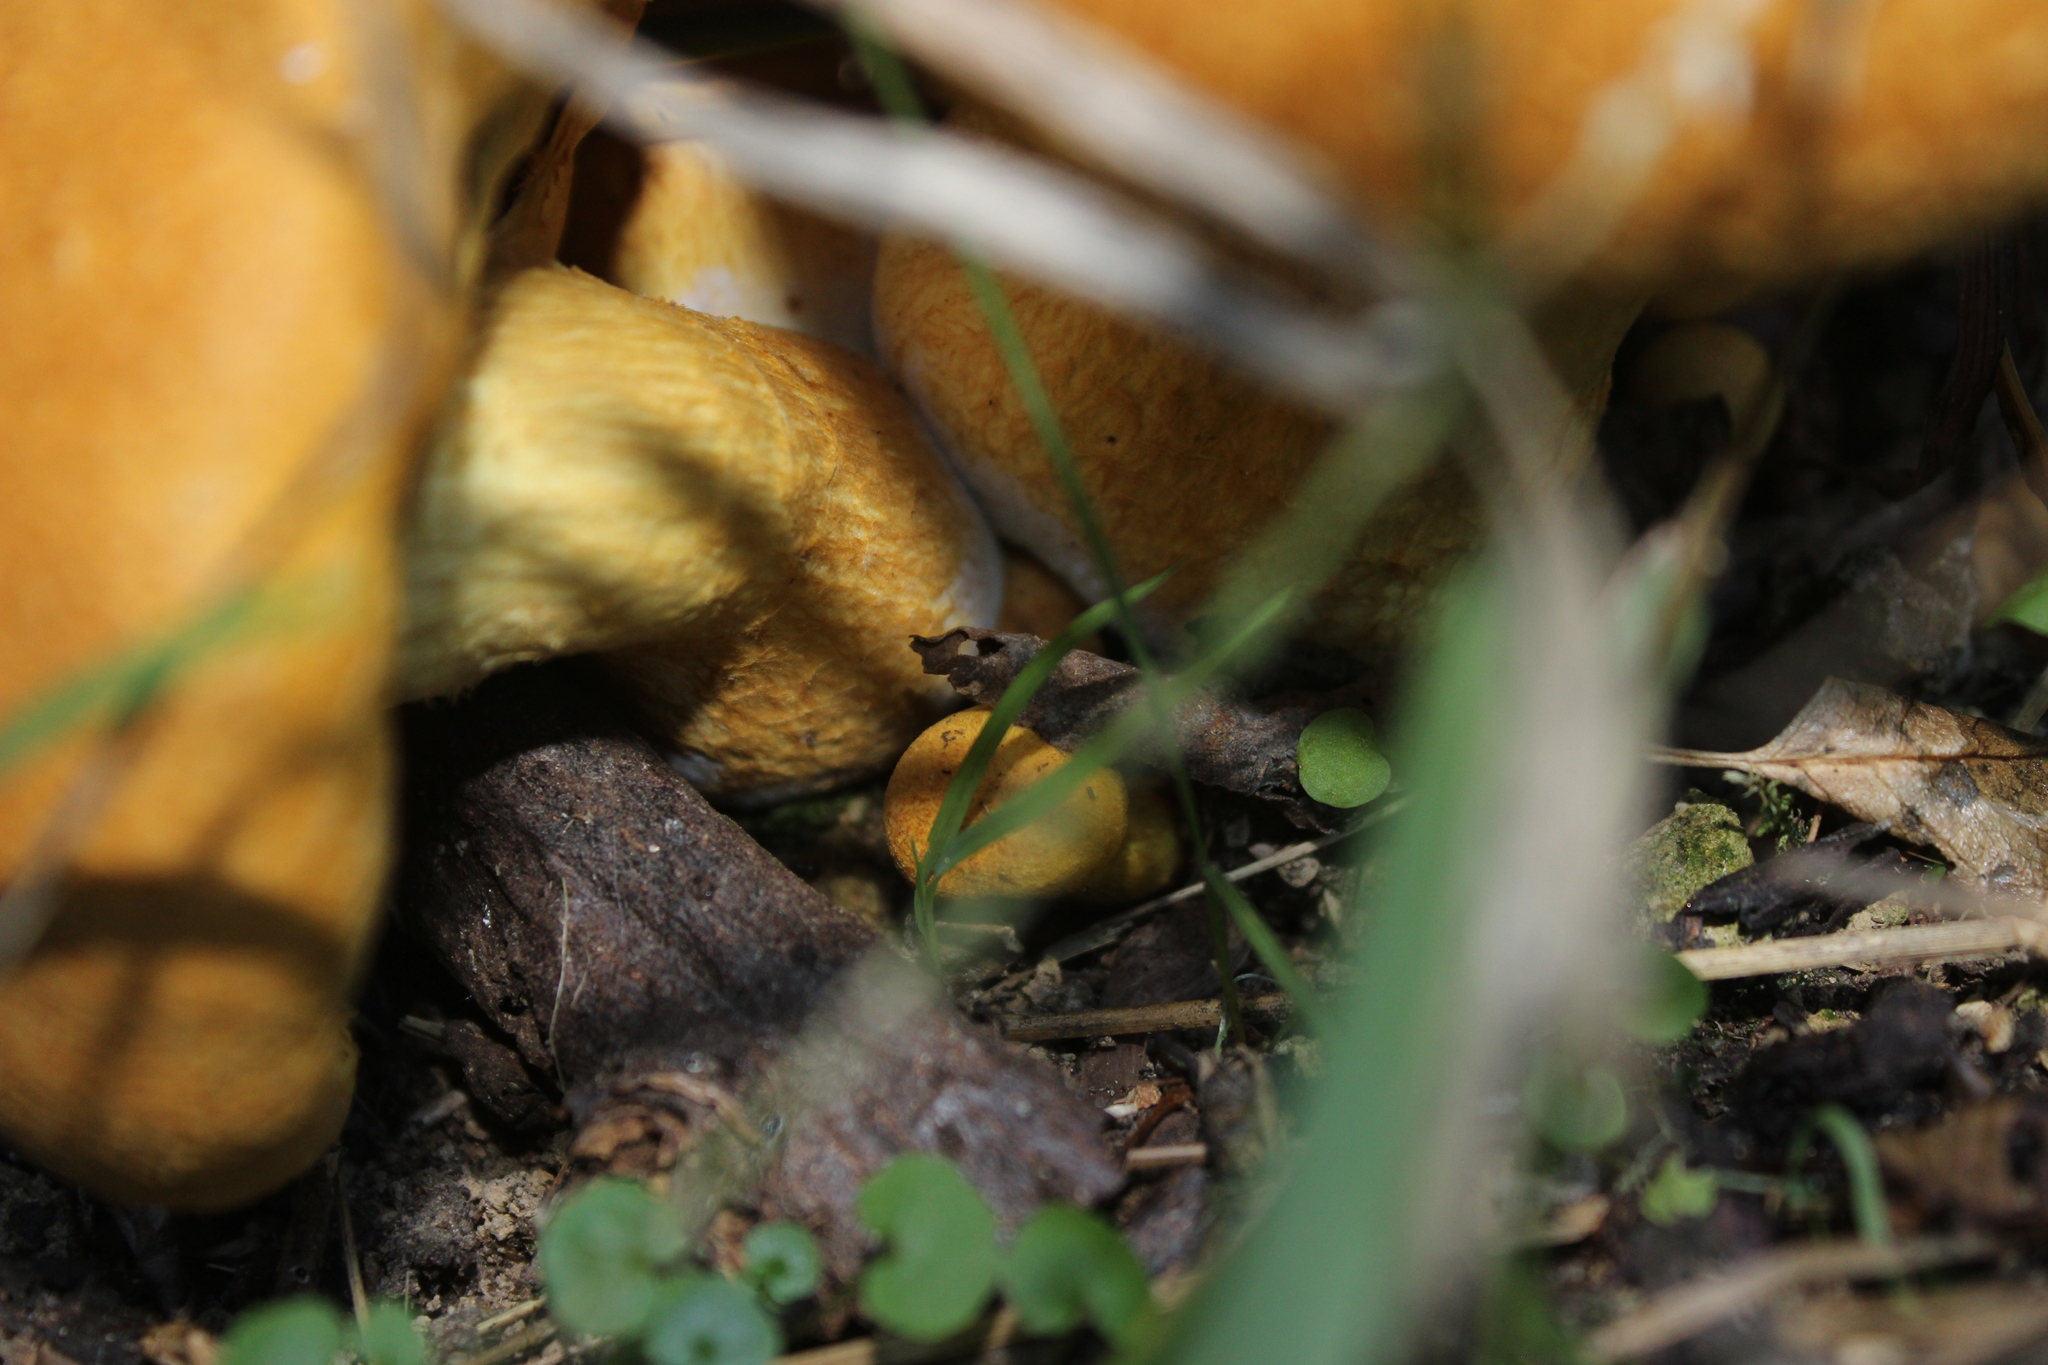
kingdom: Fungi
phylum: Basidiomycota
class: Agaricomycetes
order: Agaricales
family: Hymenogastraceae
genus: Gymnopilus
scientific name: Gymnopilus junonius
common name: Spectacular rustgill
